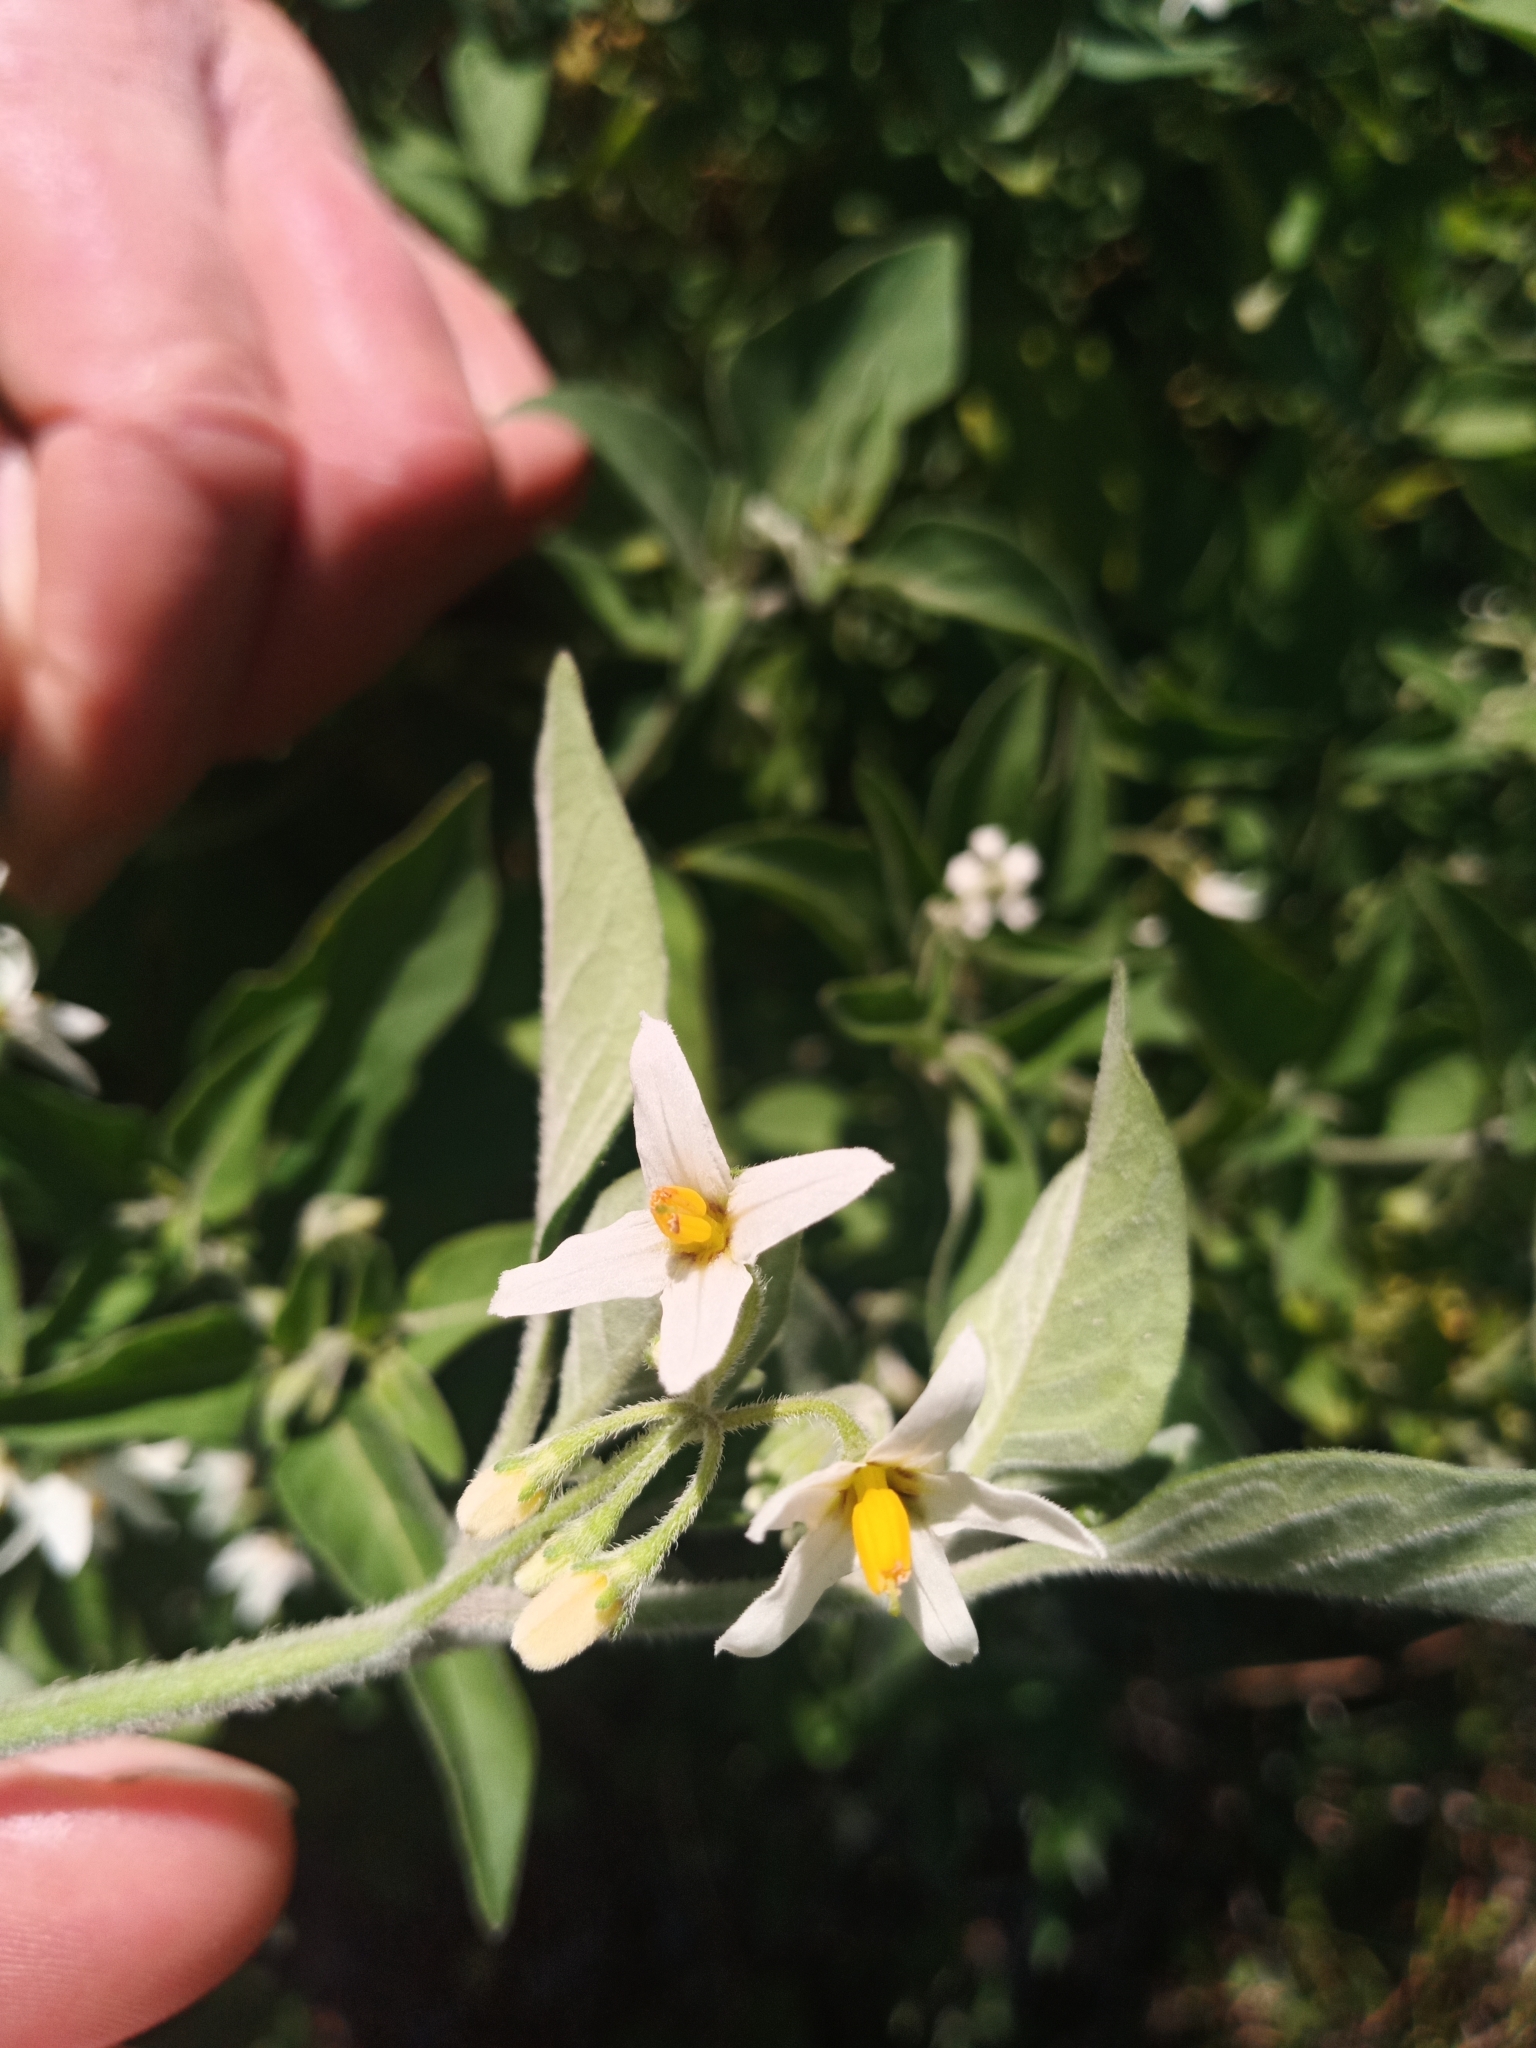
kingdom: Plantae
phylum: Tracheophyta
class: Magnoliopsida
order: Solanales
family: Solanaceae
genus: Solanum
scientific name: Solanum chenopodioides
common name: Tall nightshade
